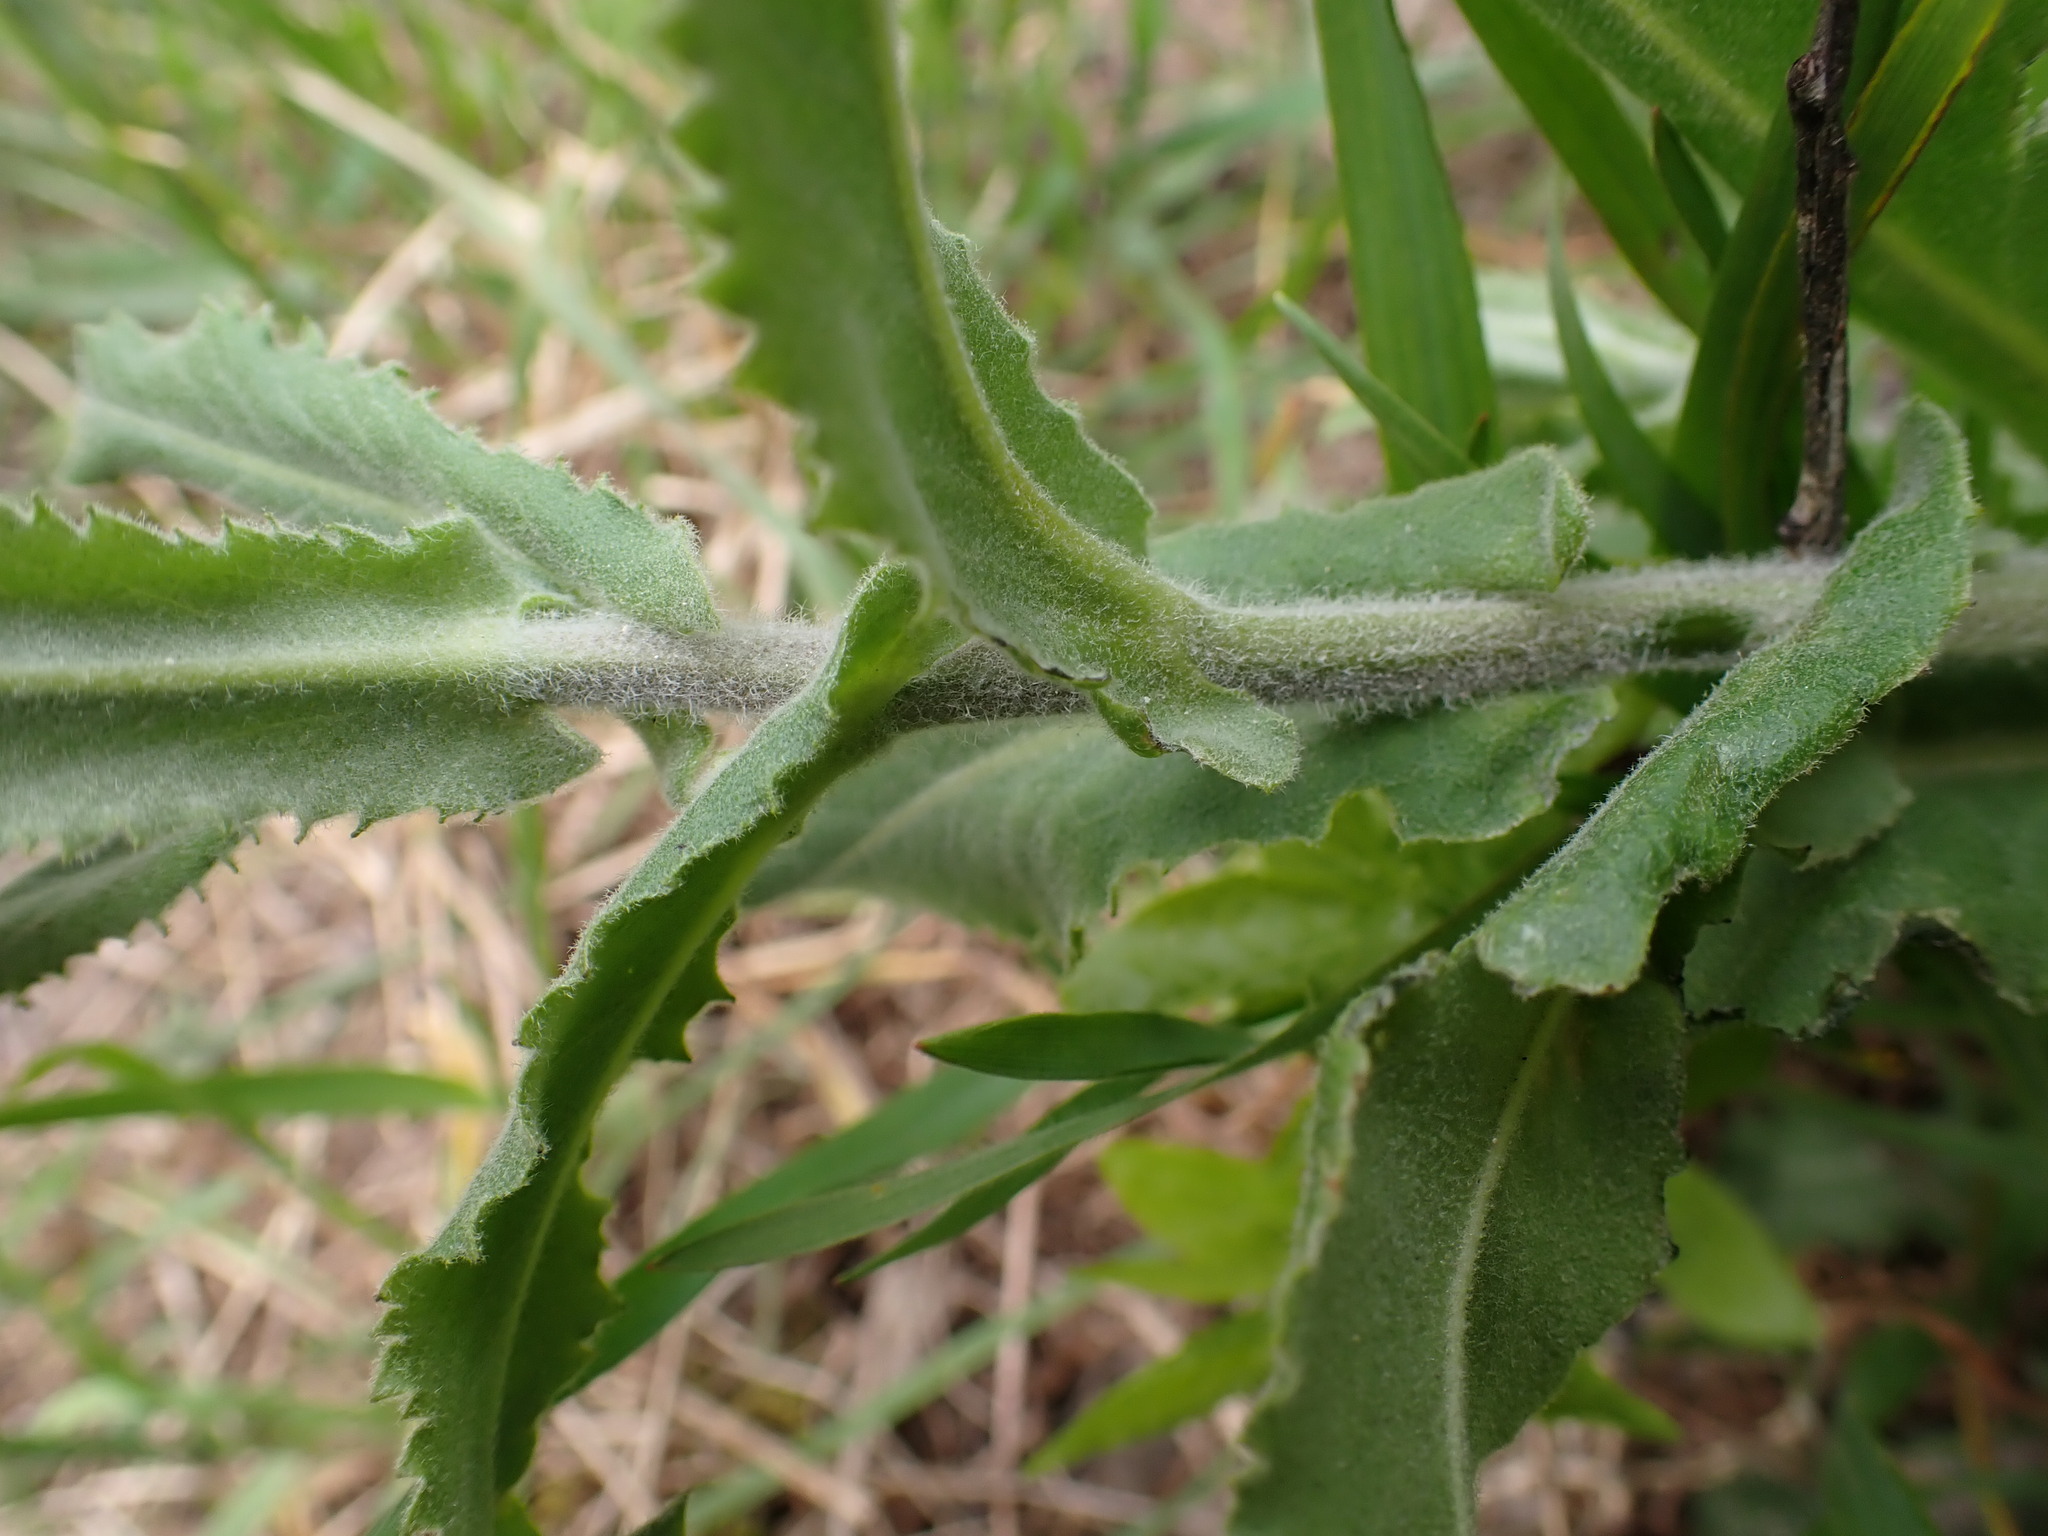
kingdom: Plantae
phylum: Tracheophyta
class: Magnoliopsida
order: Brassicales
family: Brassicaceae
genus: Pseudoturritis
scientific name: Pseudoturritis turrita
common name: Tower cress
